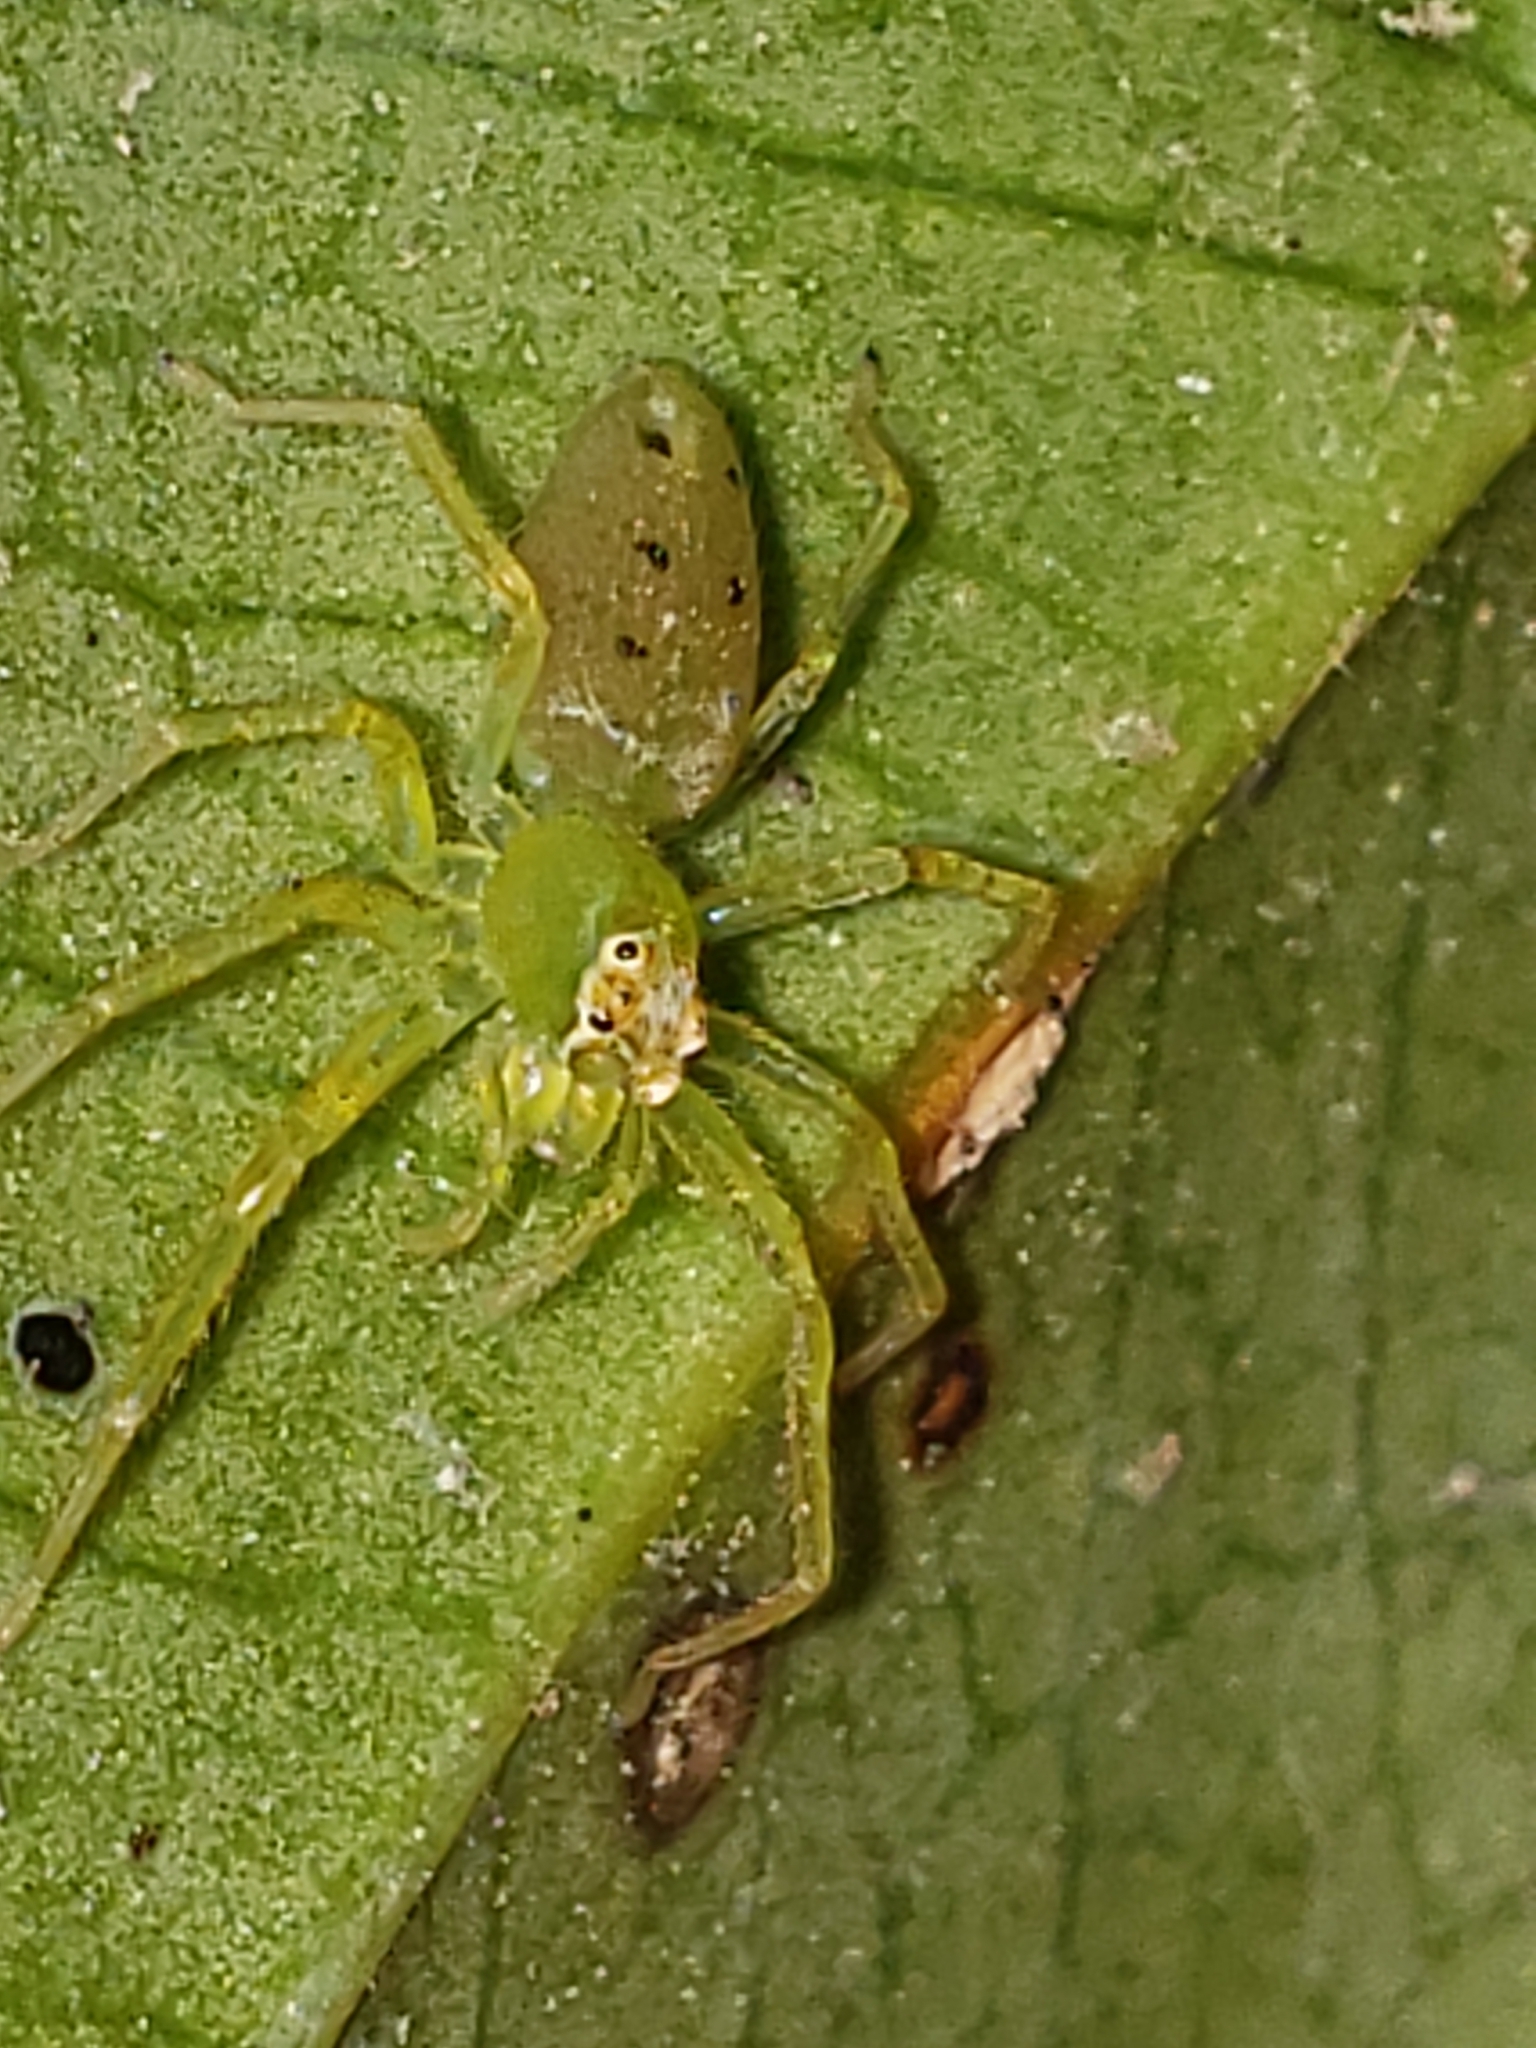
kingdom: Animalia
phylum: Arthropoda
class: Arachnida
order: Araneae
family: Salticidae
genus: Lyssomanes
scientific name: Lyssomanes viridis
